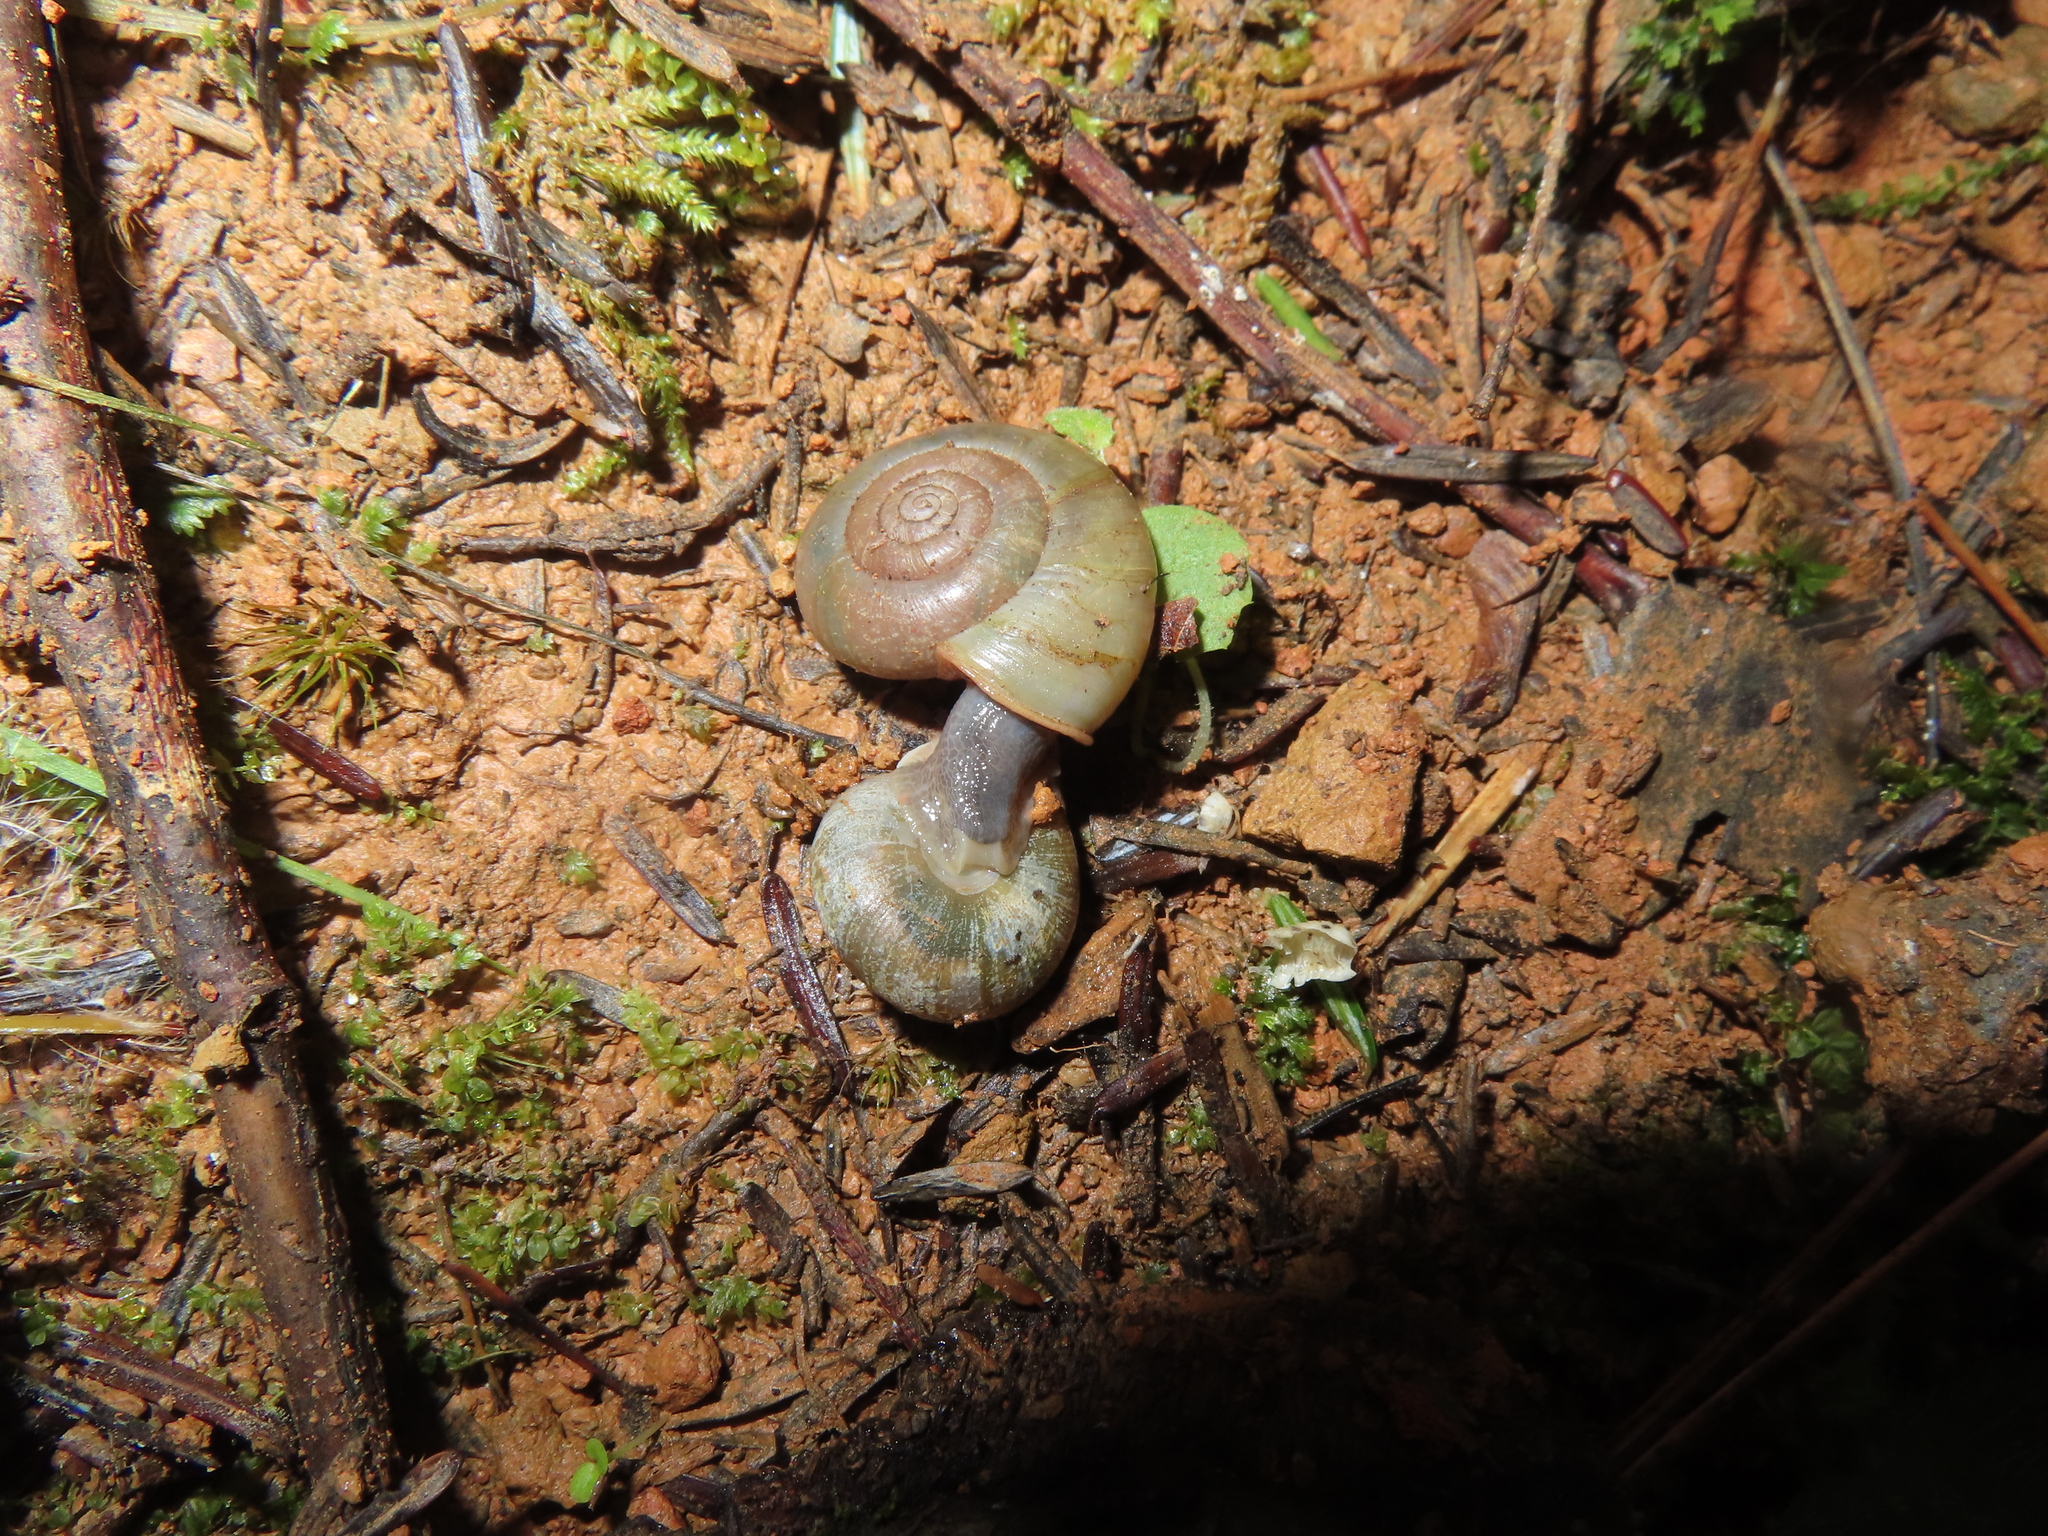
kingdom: Animalia
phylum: Mollusca
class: Gastropoda
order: Stylommatophora
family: Haplotrematidae
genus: Haplotrema
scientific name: Haplotrema concavum
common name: Gray-foot lancetooth
